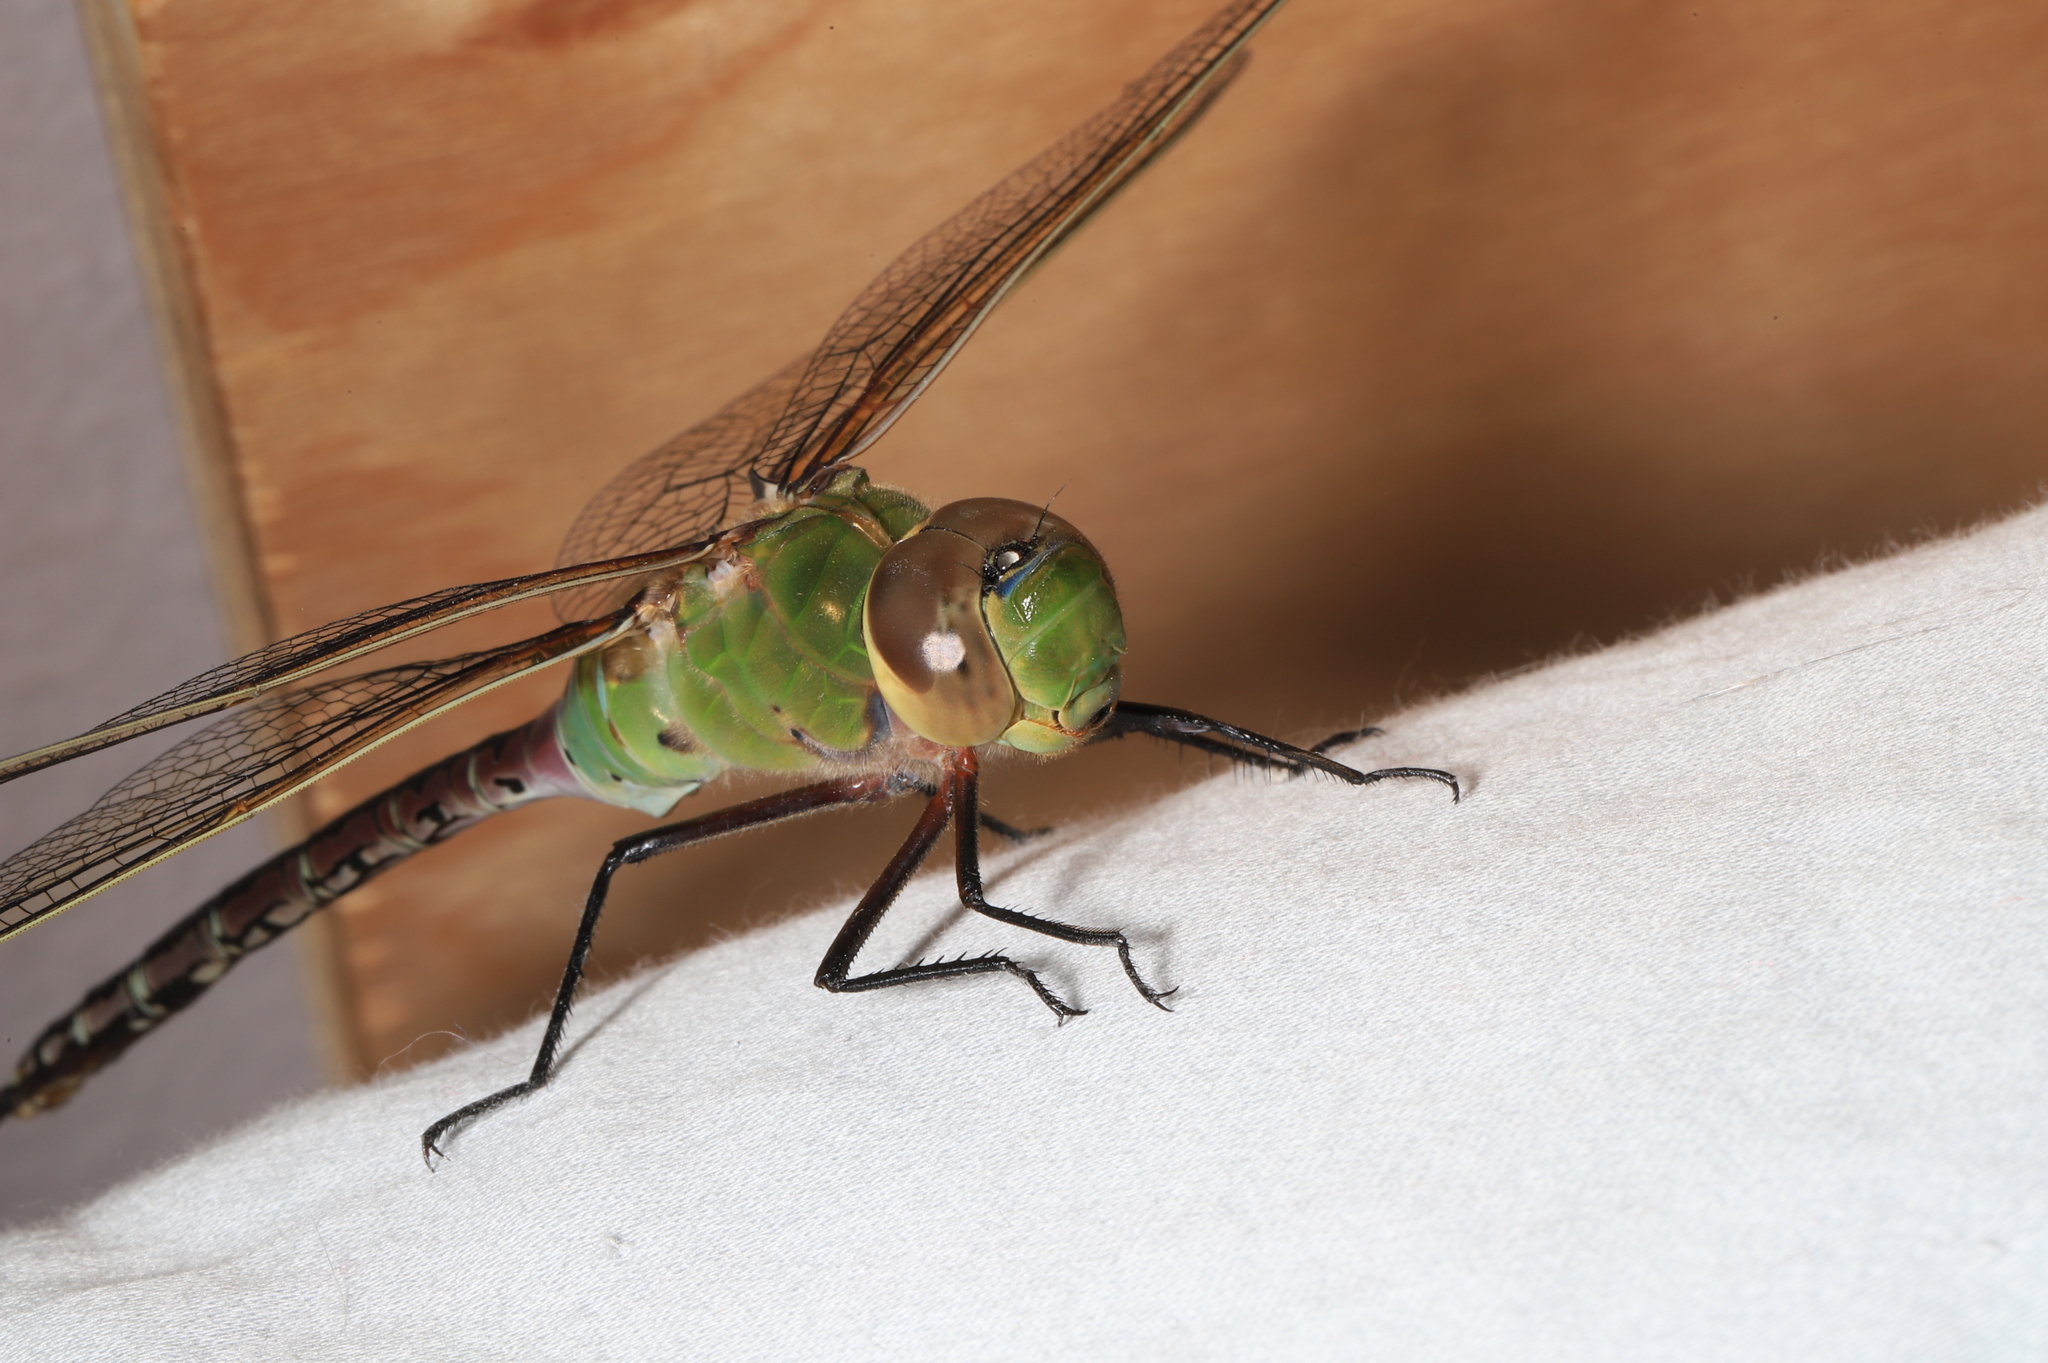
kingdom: Animalia
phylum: Arthropoda
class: Insecta
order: Odonata
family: Aeshnidae
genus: Anax
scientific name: Anax junius
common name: Common green darner
